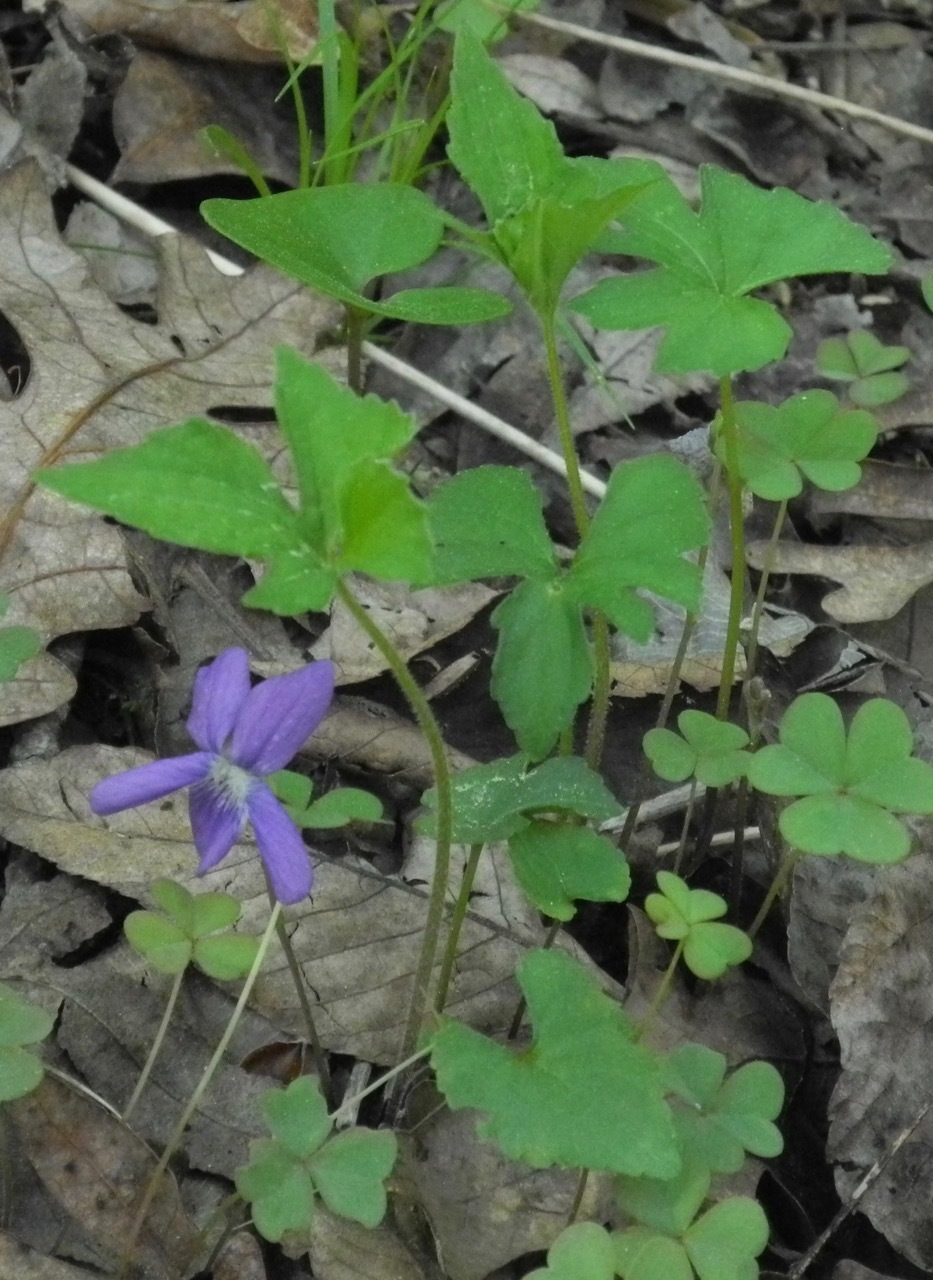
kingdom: Plantae
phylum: Tracheophyta
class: Magnoliopsida
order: Malpighiales
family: Violaceae
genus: Viola
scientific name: Viola palmata
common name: Early blue violet
